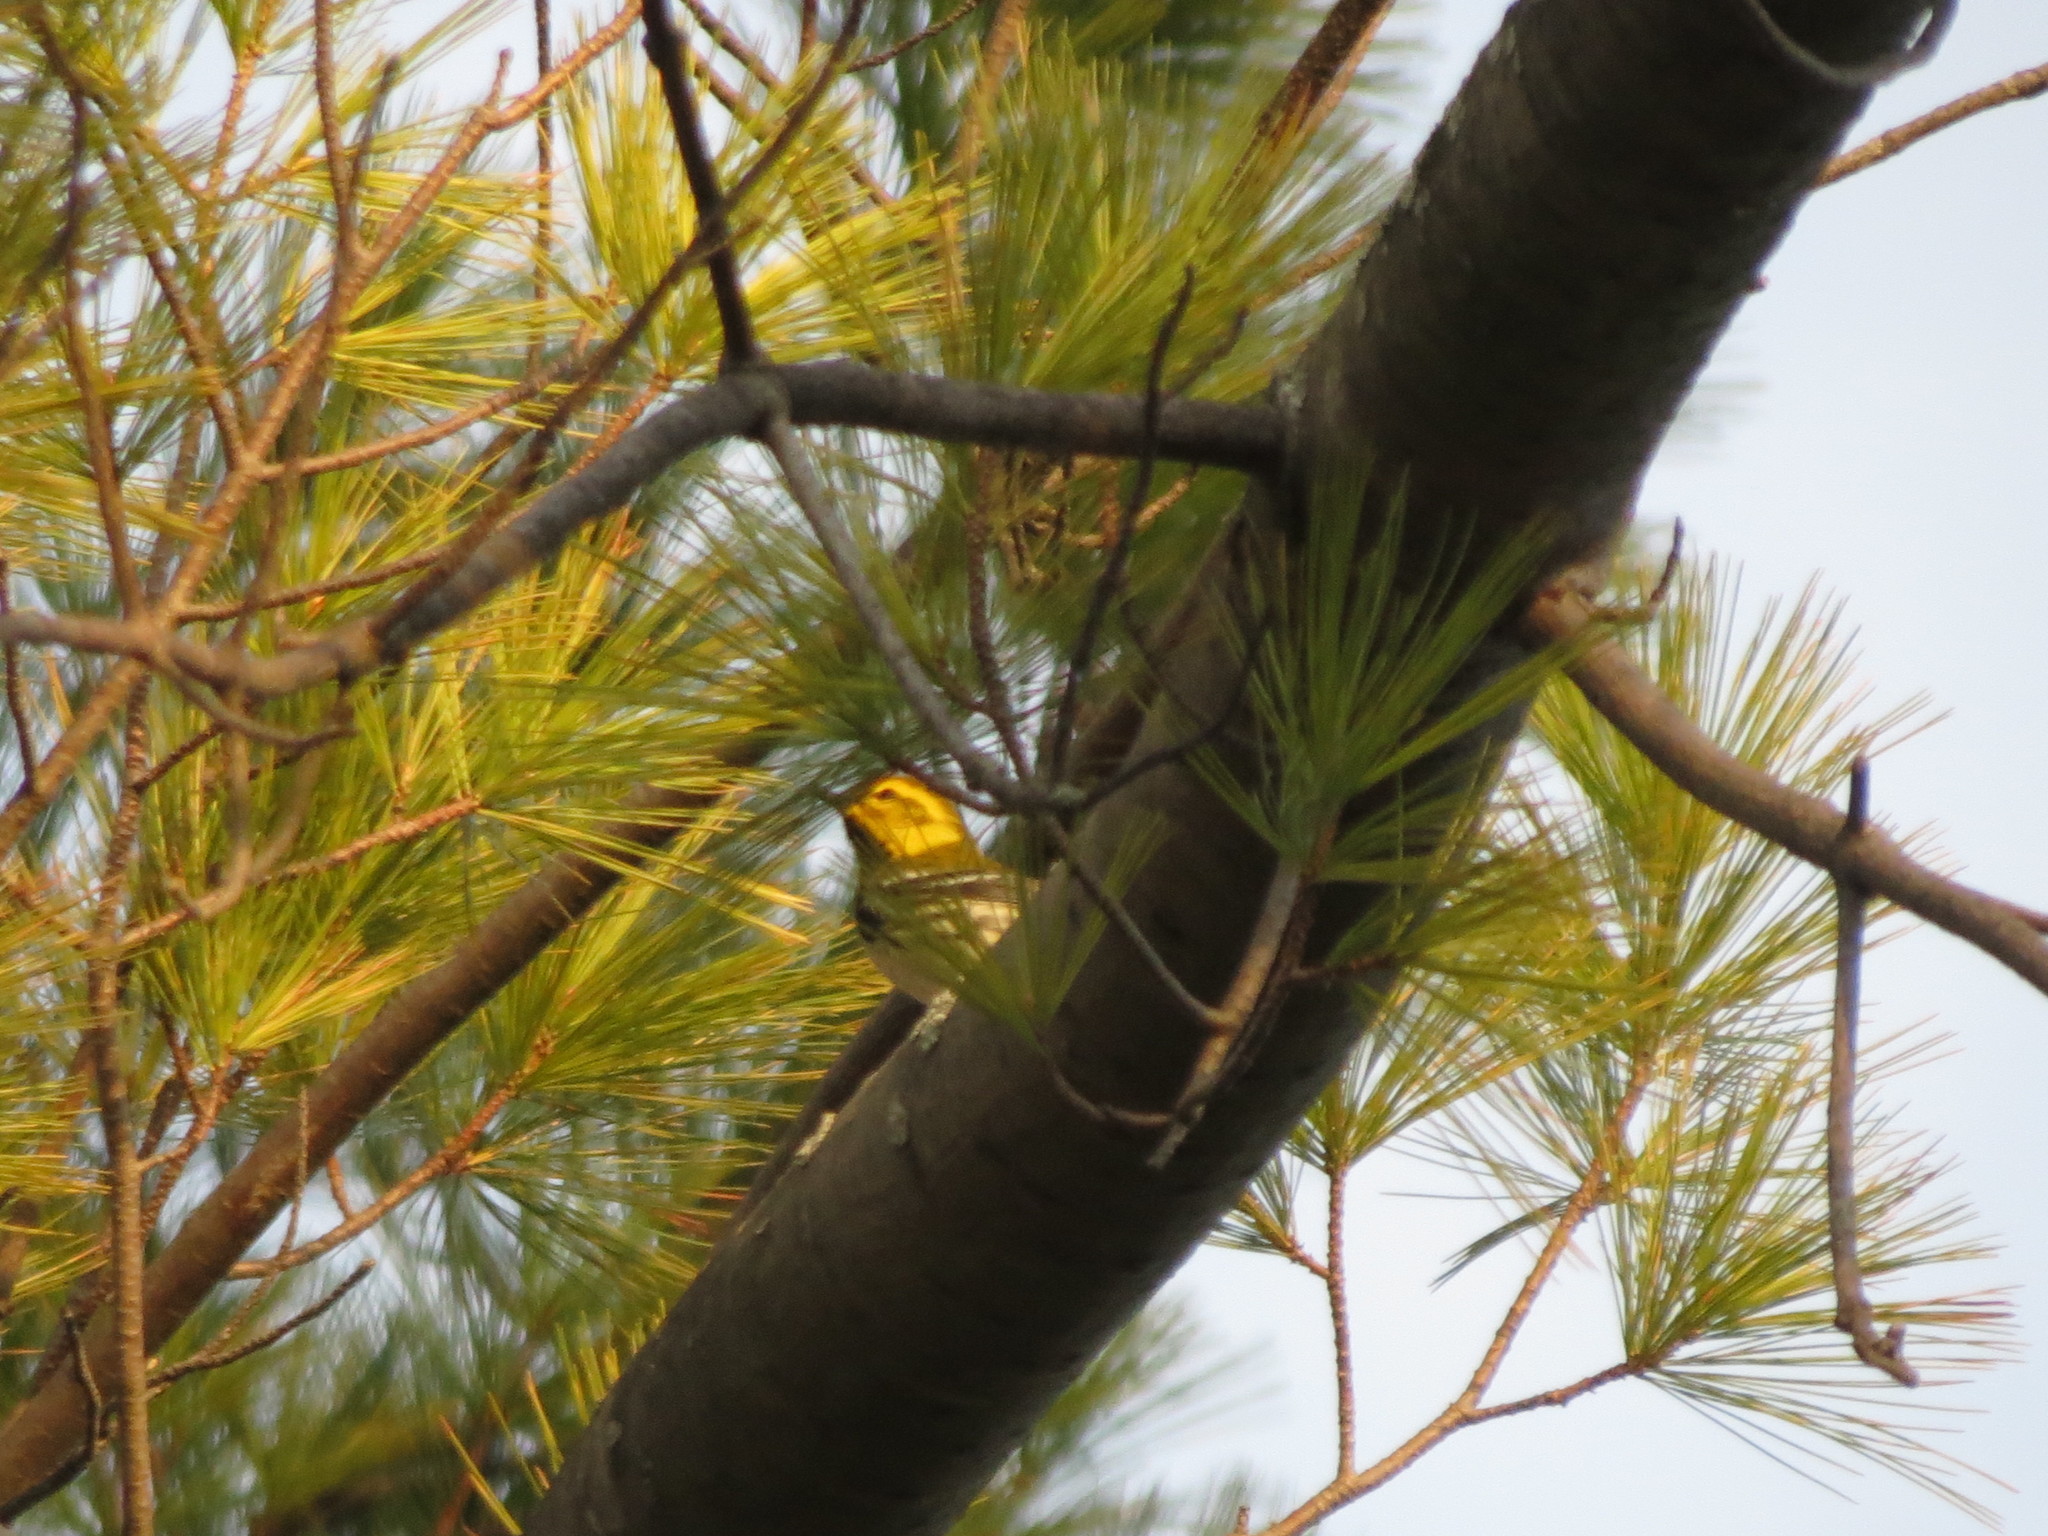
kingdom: Animalia
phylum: Chordata
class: Aves
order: Passeriformes
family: Parulidae
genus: Setophaga
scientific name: Setophaga virens
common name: Black-throated green warbler
